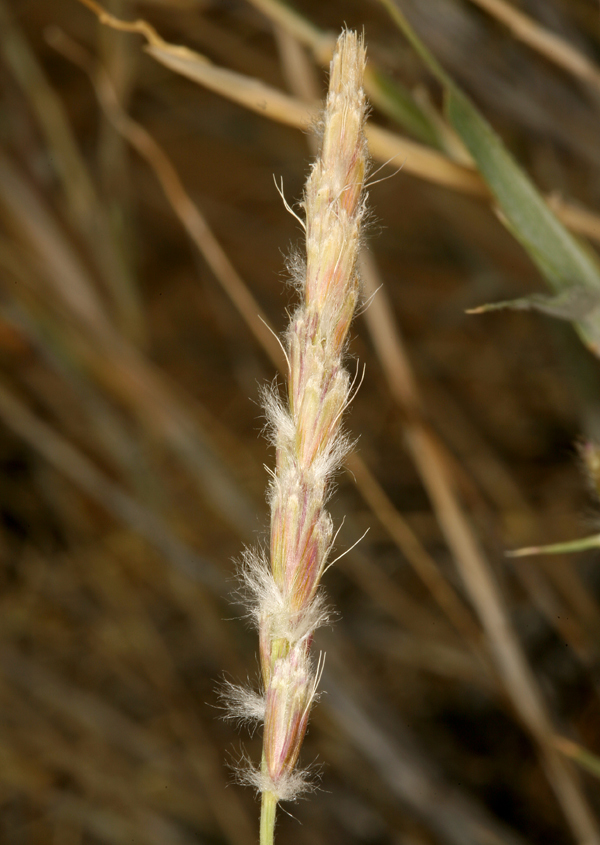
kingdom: Plantae
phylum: Tracheophyta
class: Liliopsida
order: Poales
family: Poaceae
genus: Hilaria
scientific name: Hilaria rigida
